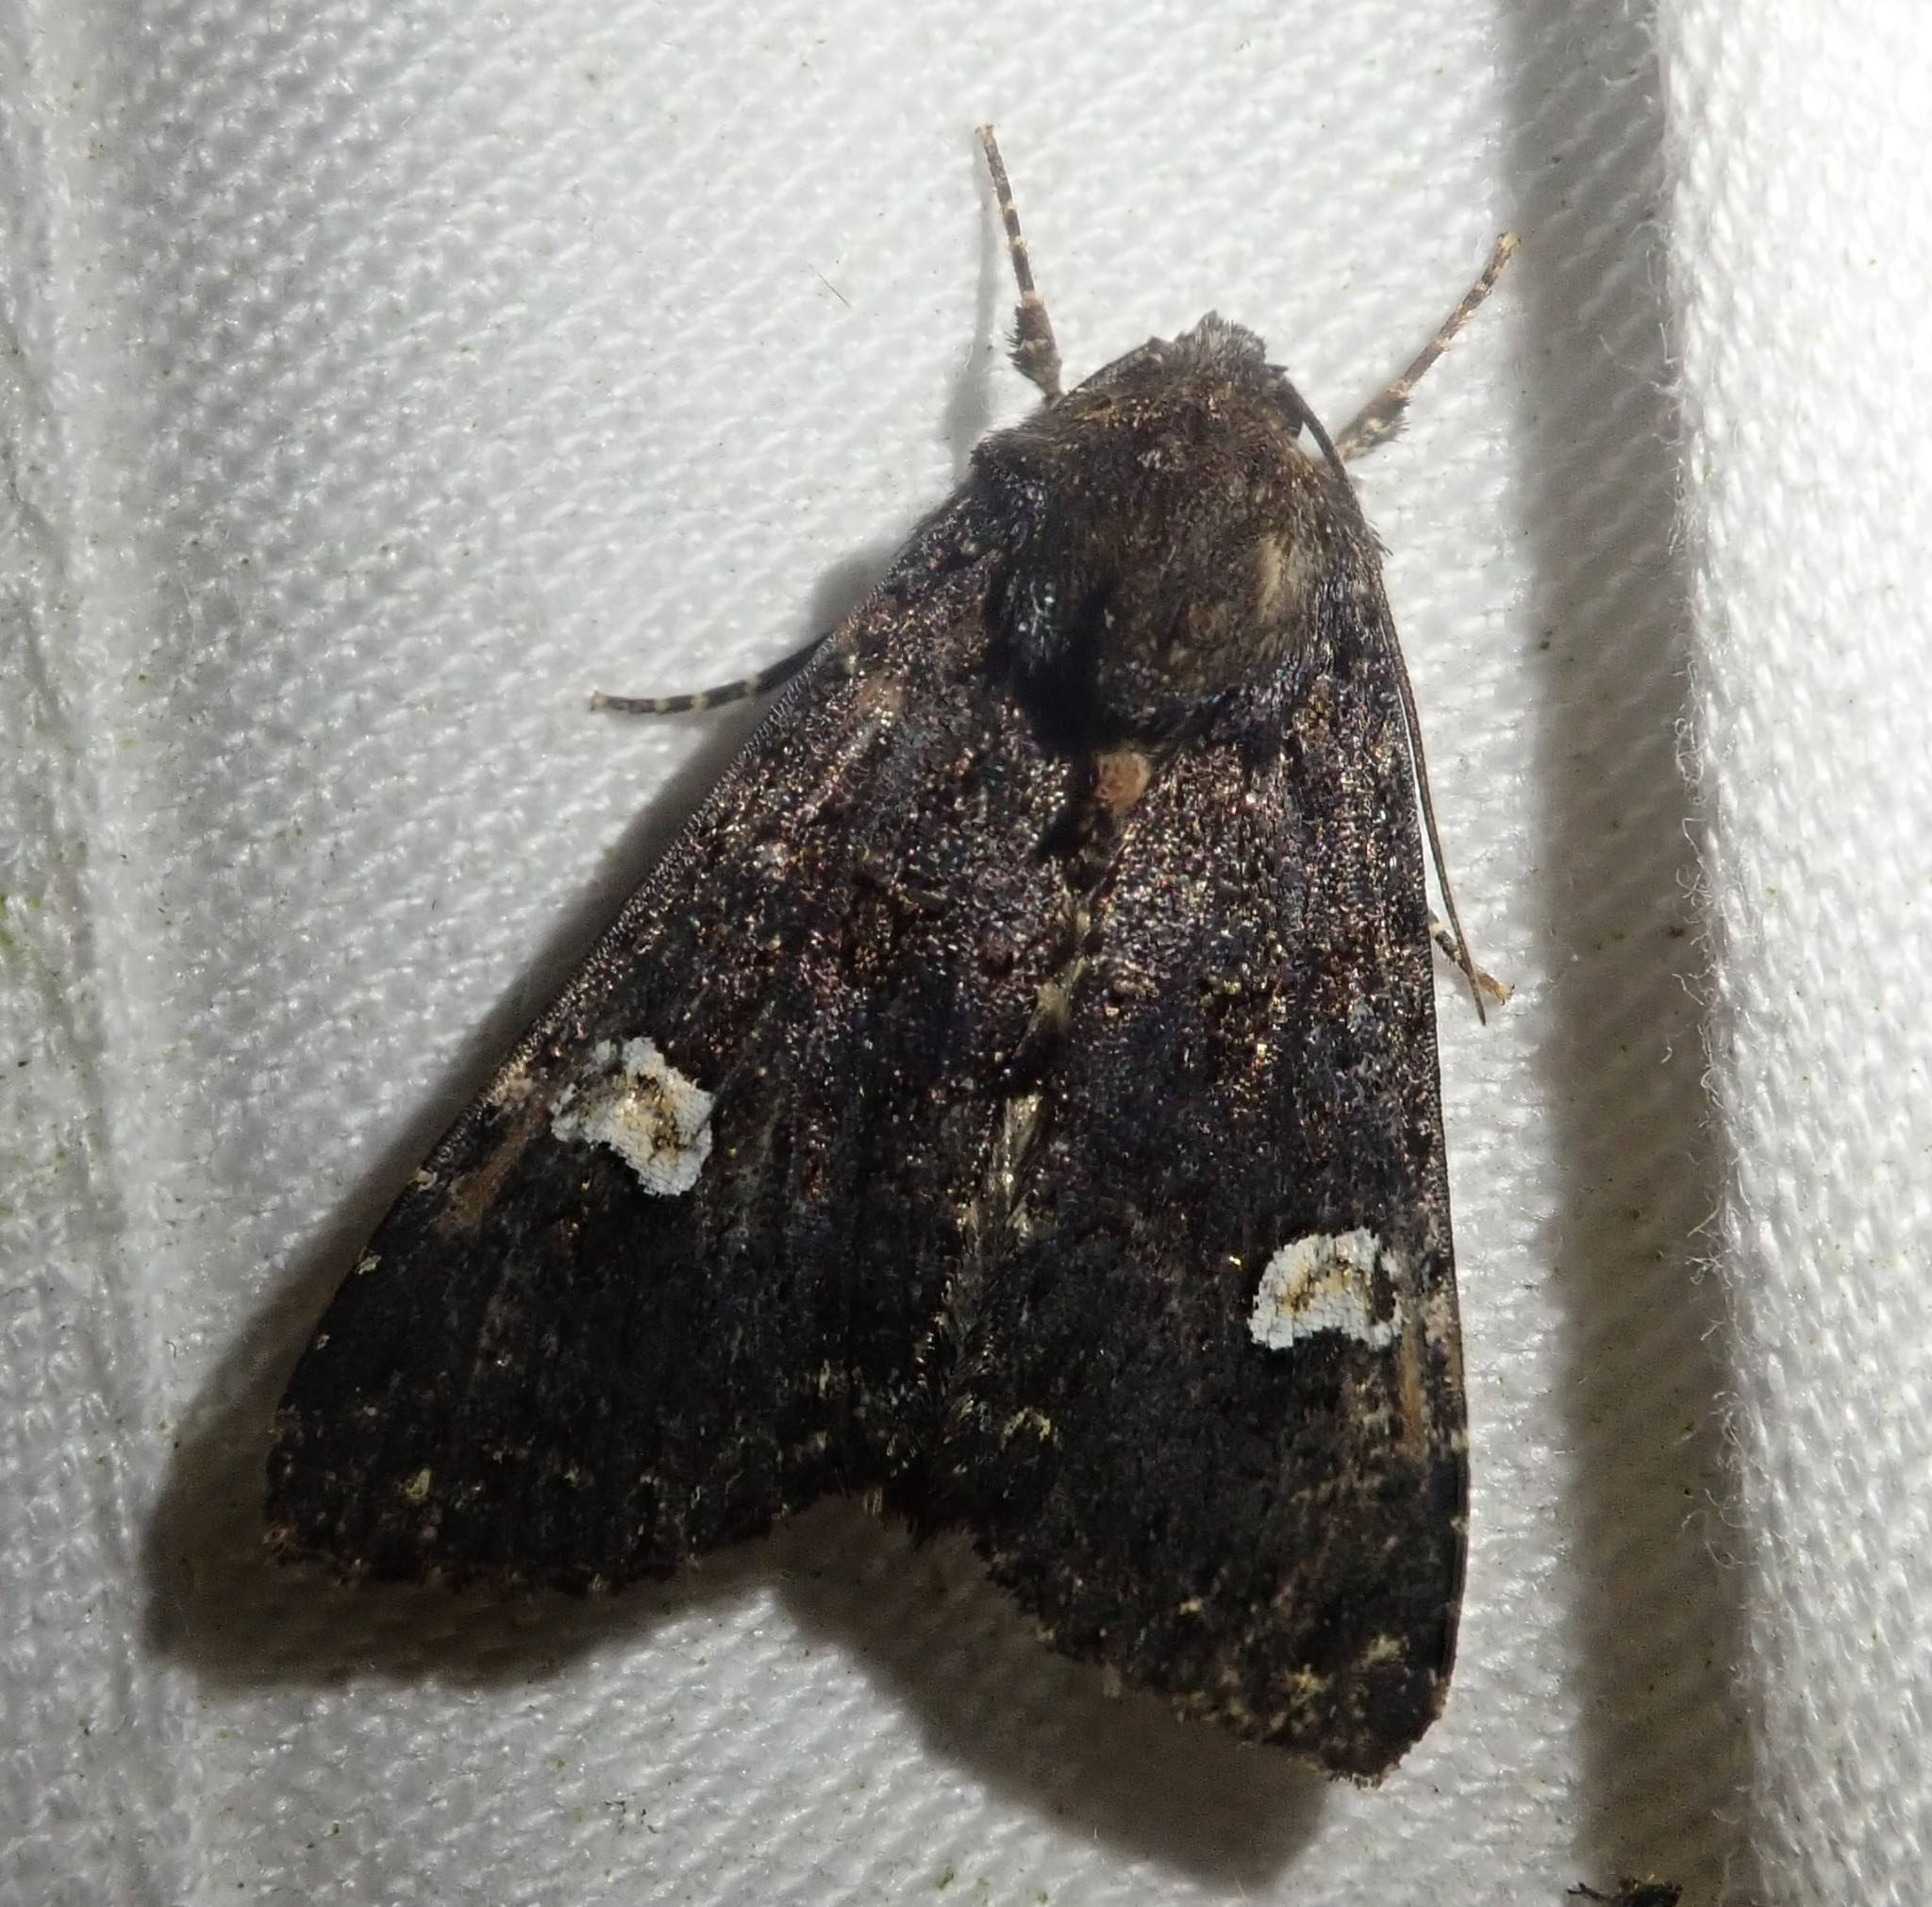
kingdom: Animalia
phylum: Arthropoda
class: Insecta
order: Lepidoptera
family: Noctuidae
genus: Melanchra
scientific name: Melanchra persicariae
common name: Dot moth
